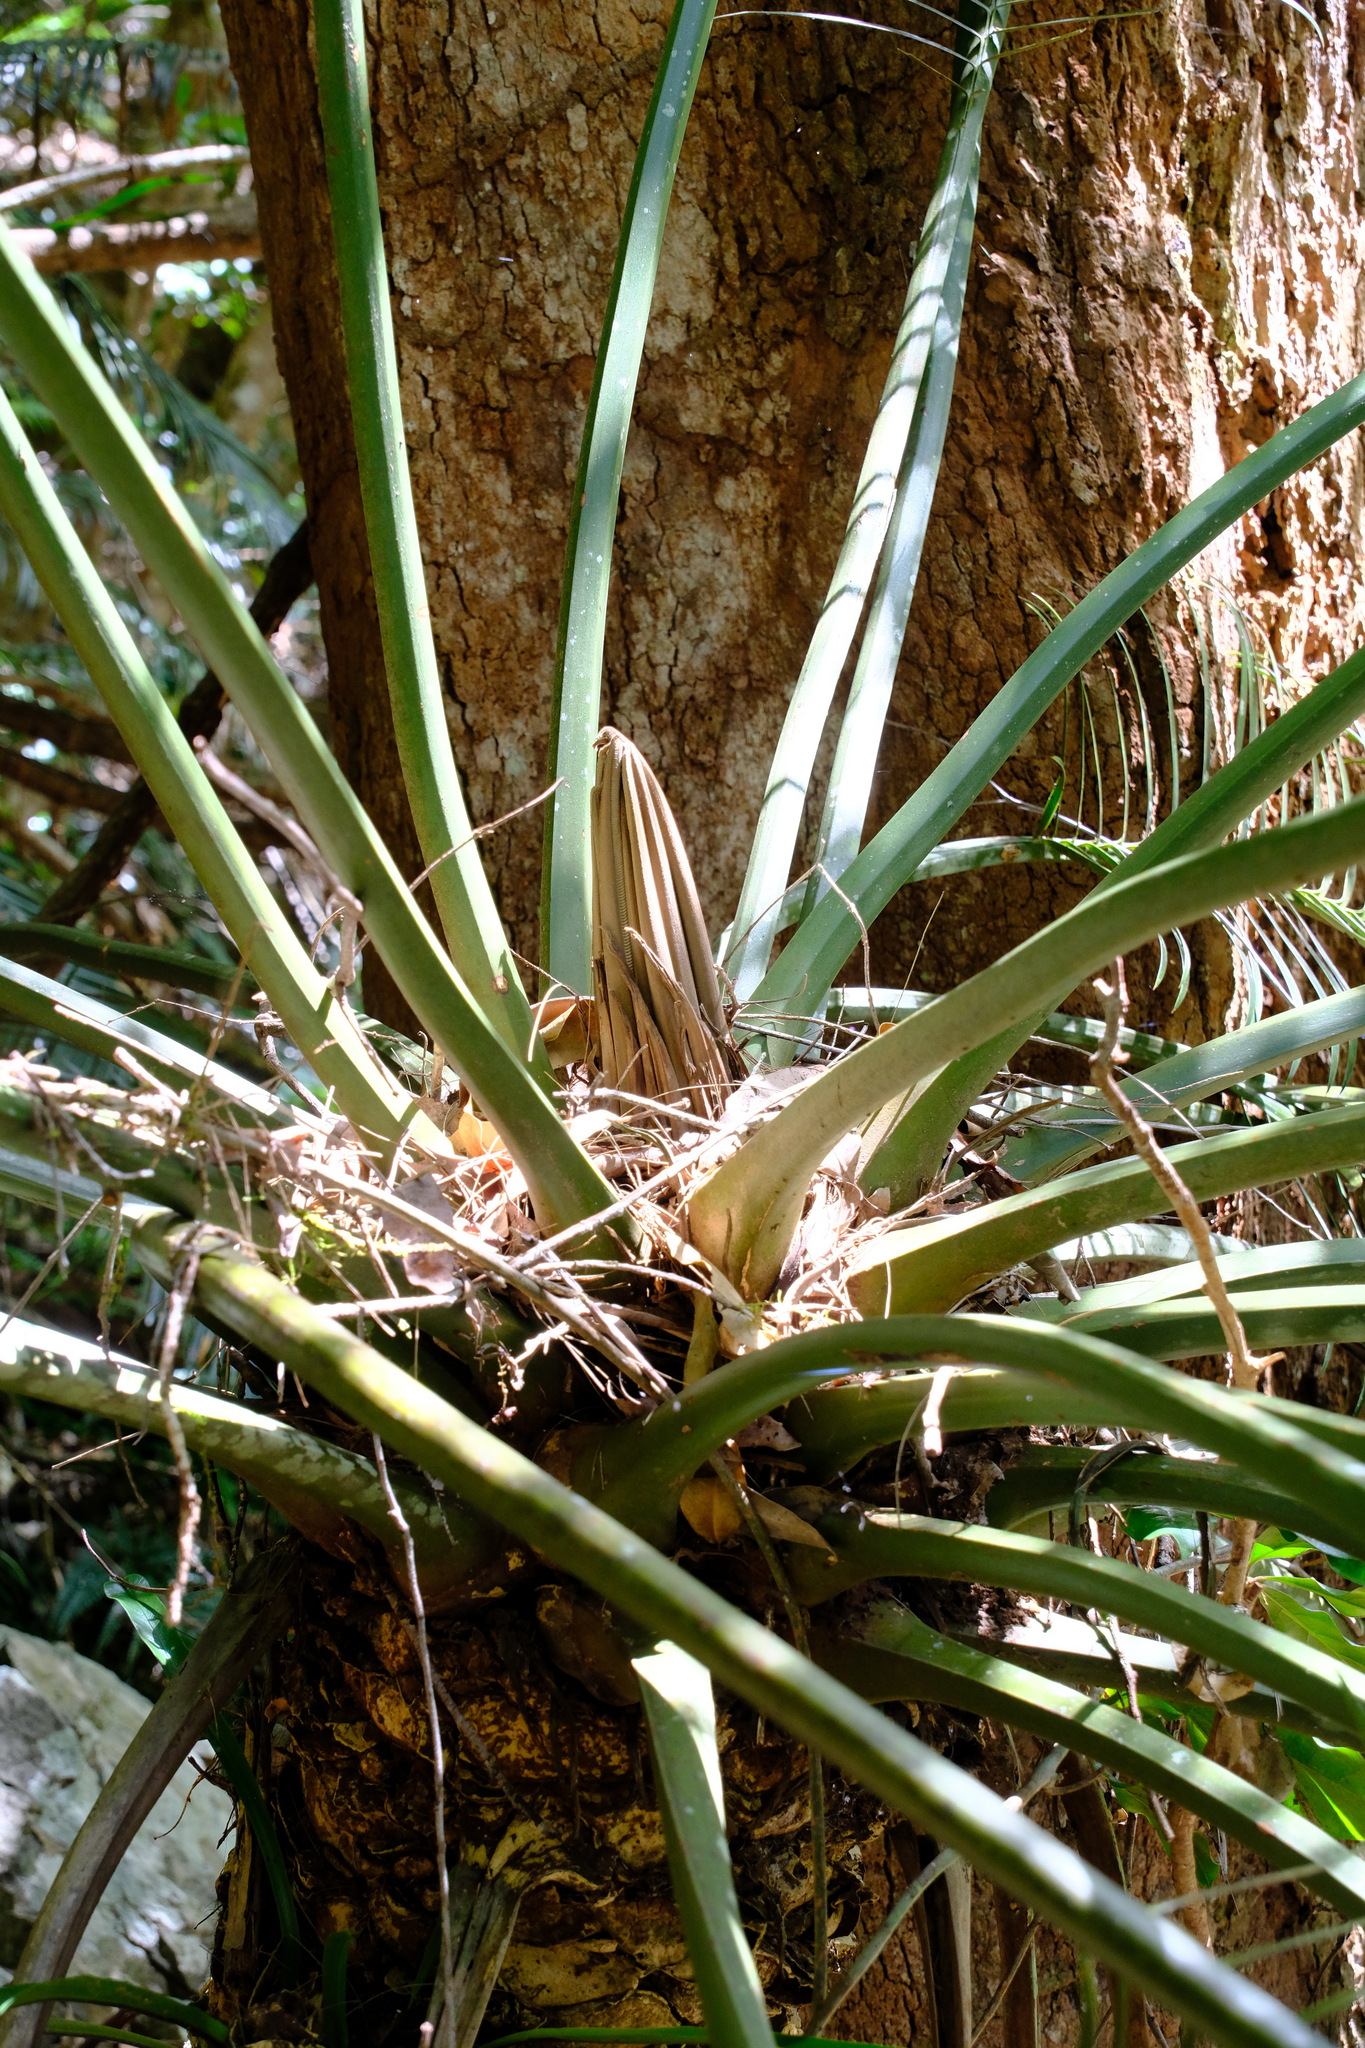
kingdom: Plantae
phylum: Tracheophyta
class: Cycadopsida
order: Cycadales
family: Zamiaceae
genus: Lepidozamia
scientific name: Lepidozamia peroffskyana
